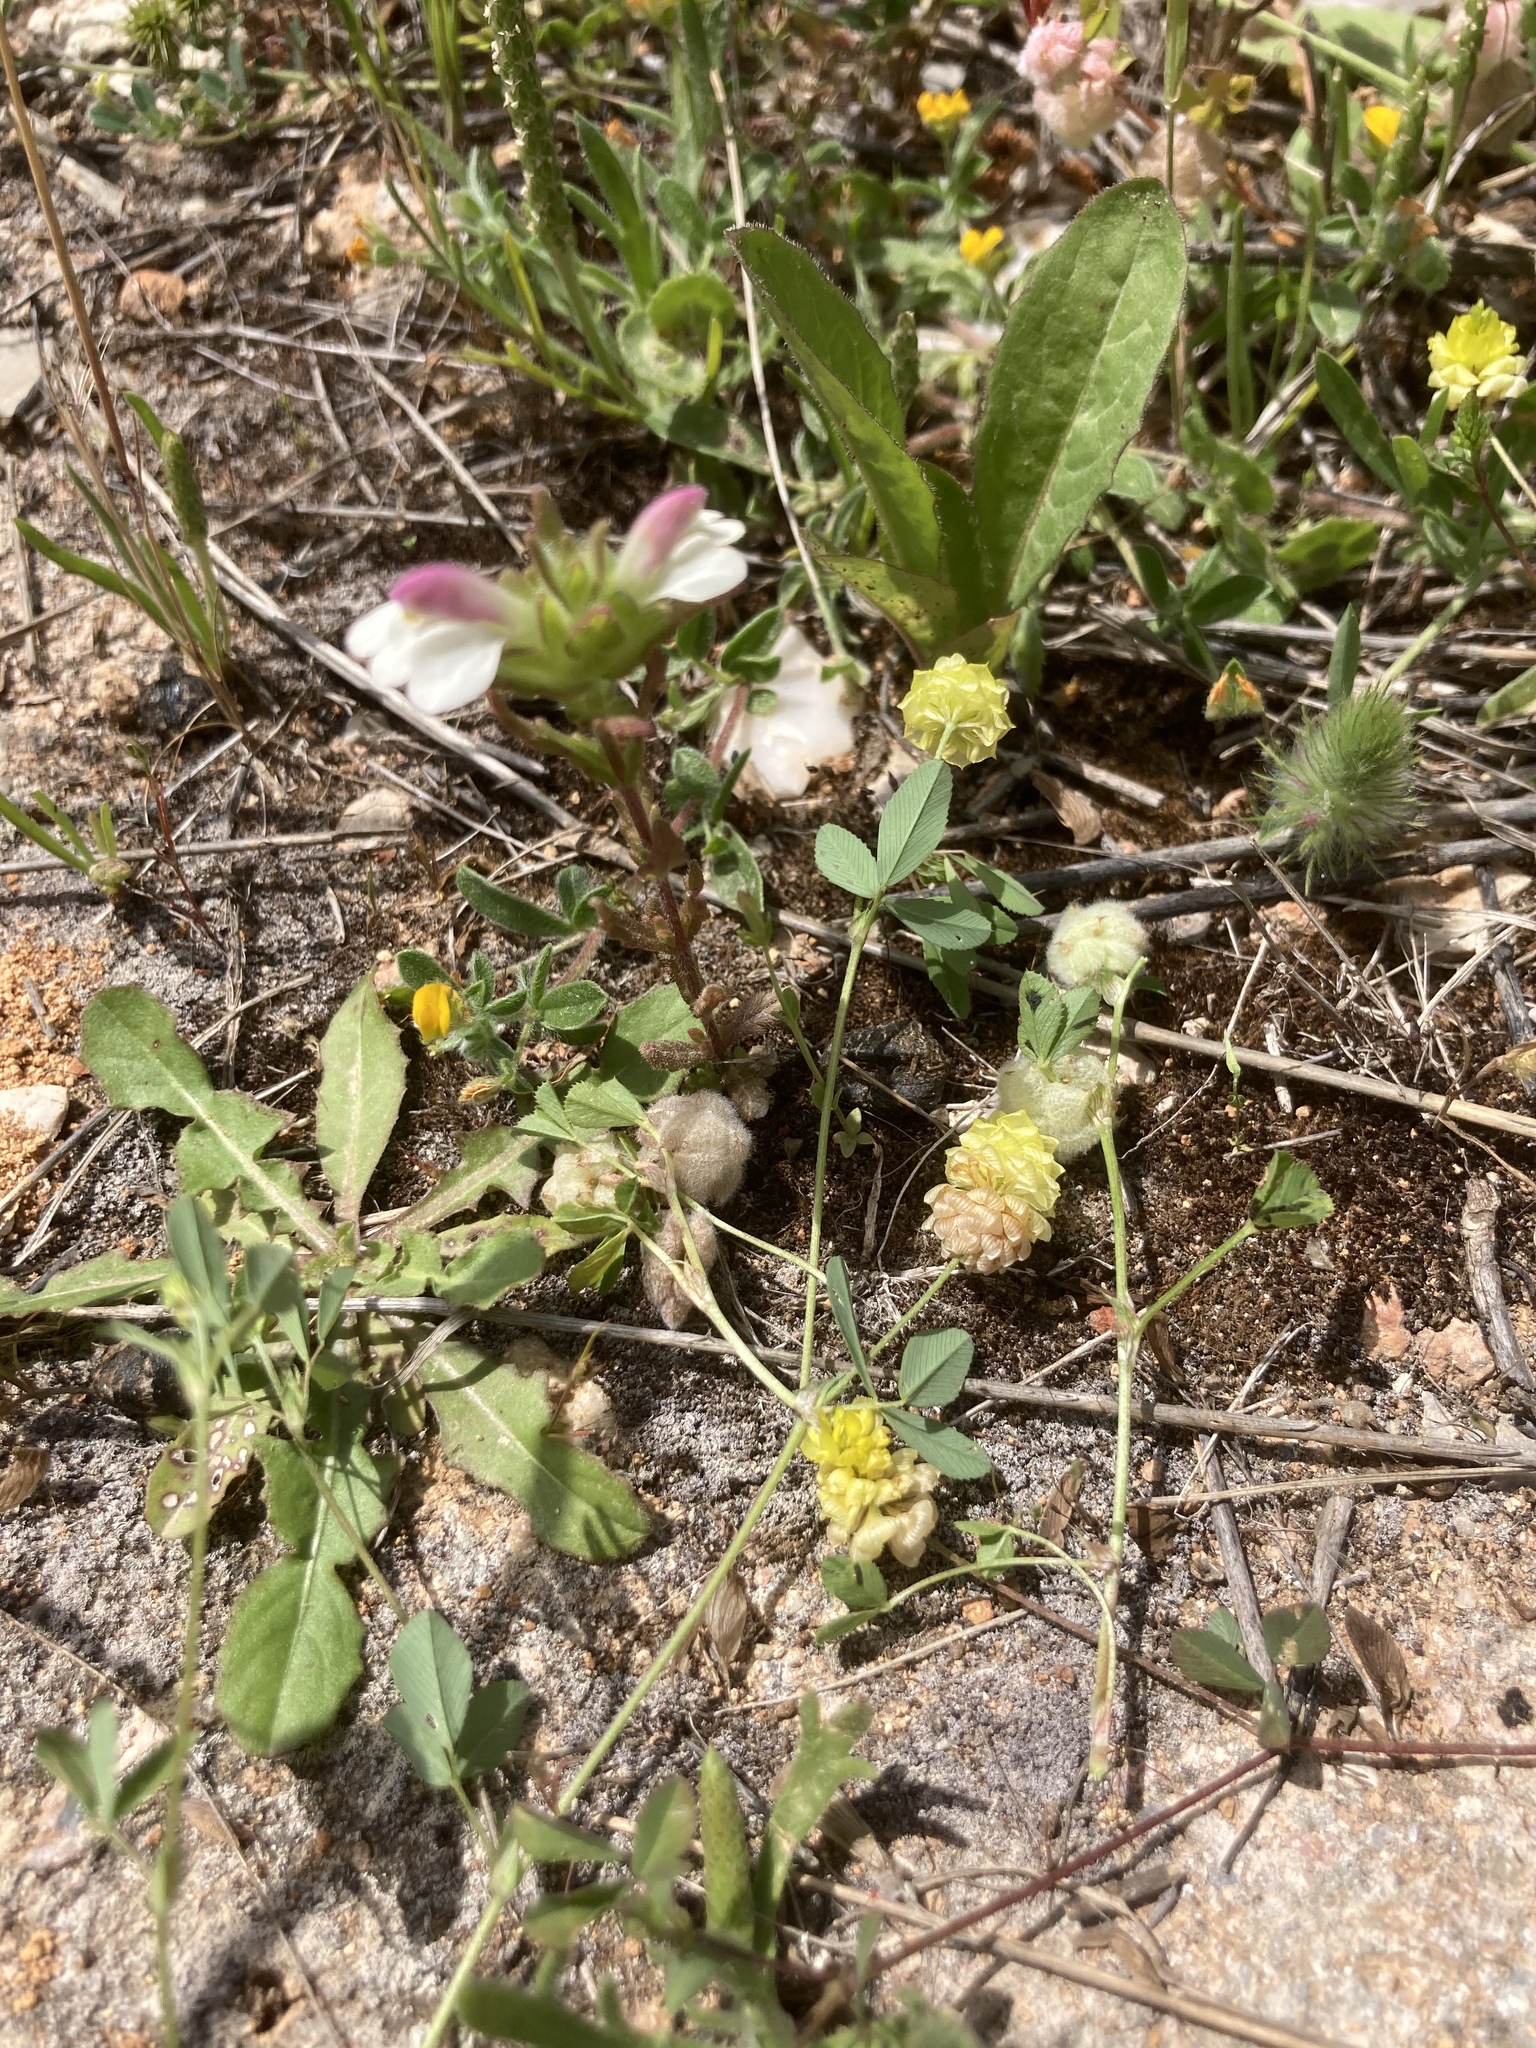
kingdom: Plantae
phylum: Tracheophyta
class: Magnoliopsida
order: Fabales
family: Fabaceae
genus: Trifolium
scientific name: Trifolium campestre
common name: Field clover
